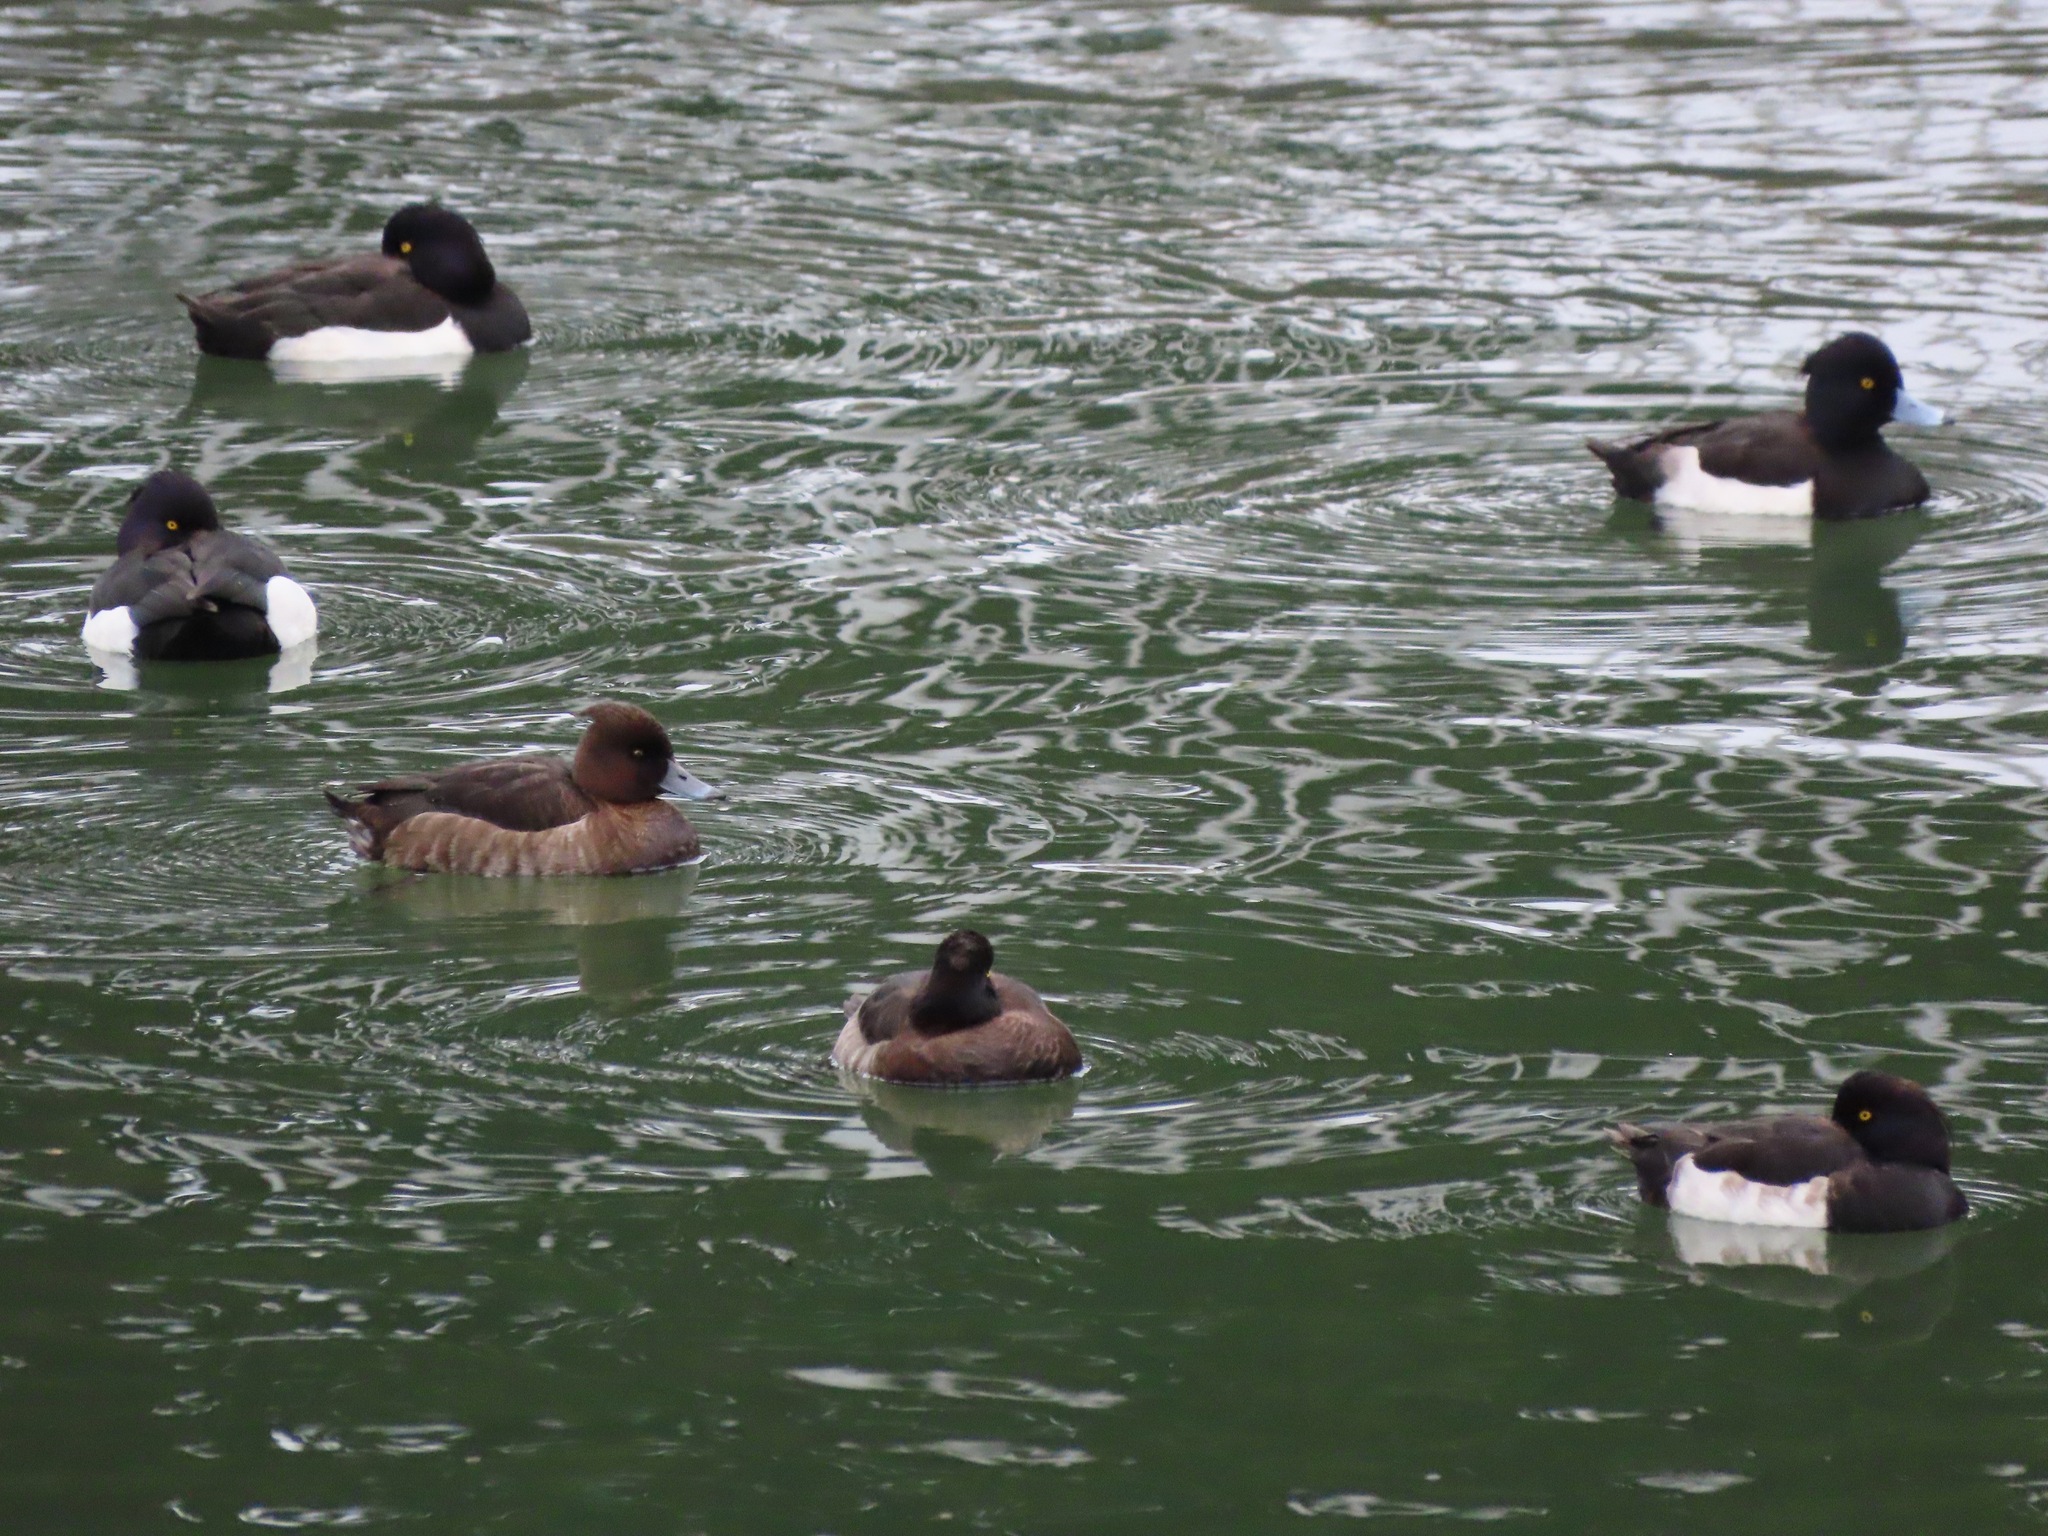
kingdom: Animalia
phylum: Chordata
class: Aves
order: Anseriformes
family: Anatidae
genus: Aythya
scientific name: Aythya fuligula
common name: Tufted duck
